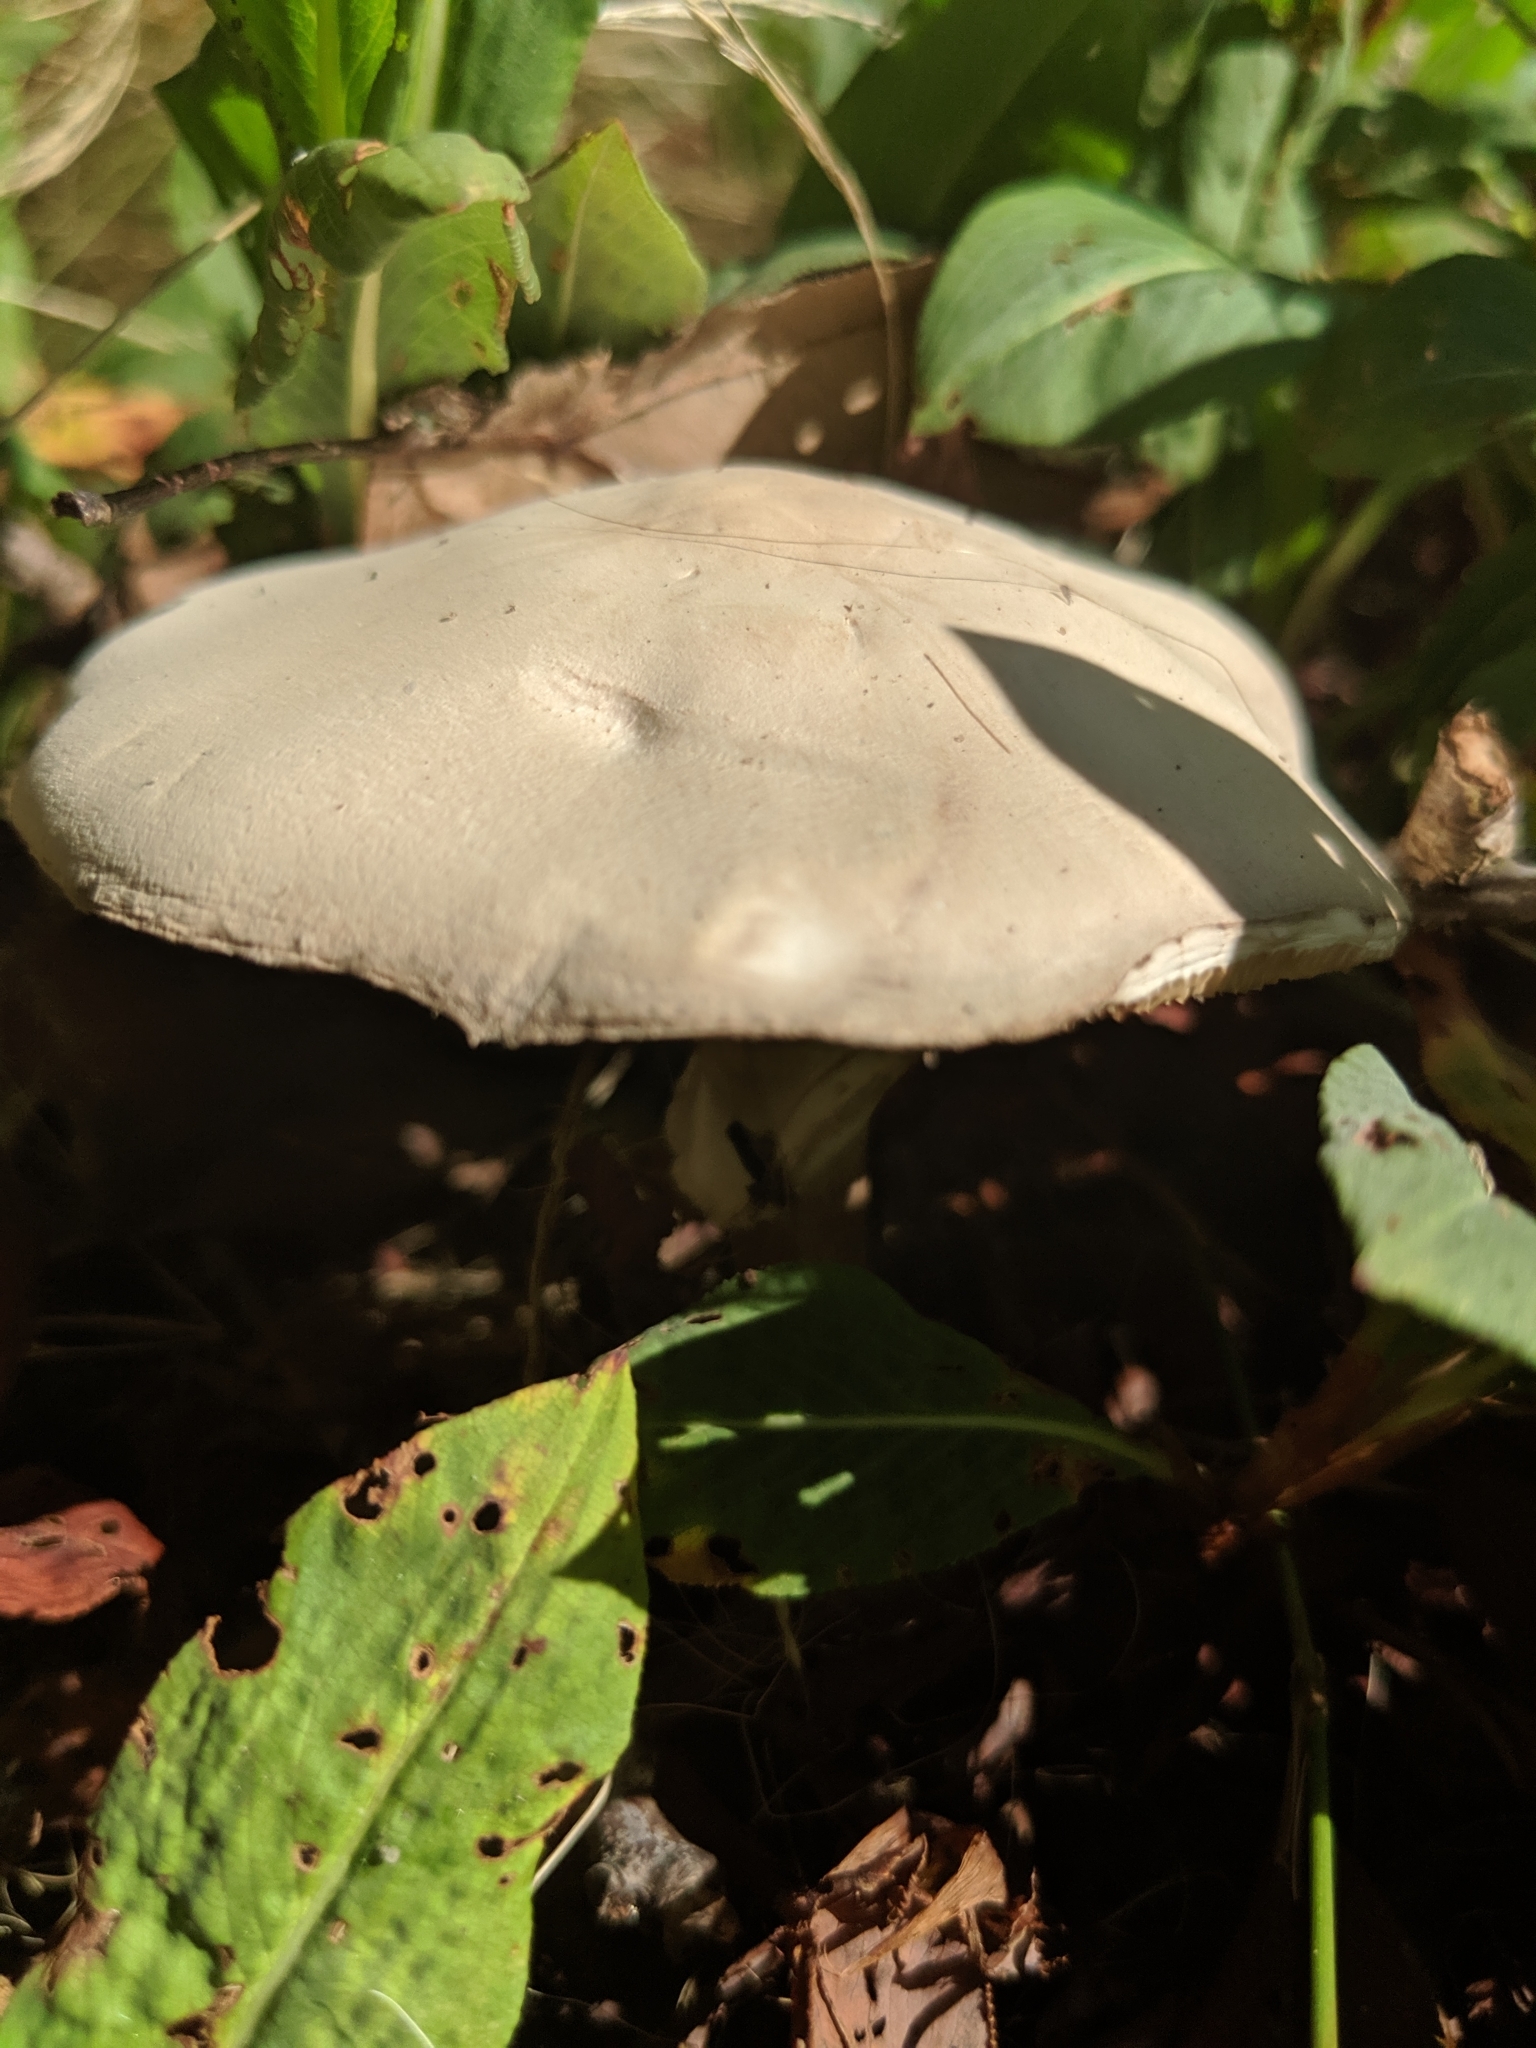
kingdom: Fungi
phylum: Basidiomycota
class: Agaricomycetes
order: Agaricales
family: Agaricaceae
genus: Leucoagaricus
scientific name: Leucoagaricus leucothites
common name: White dapperling
